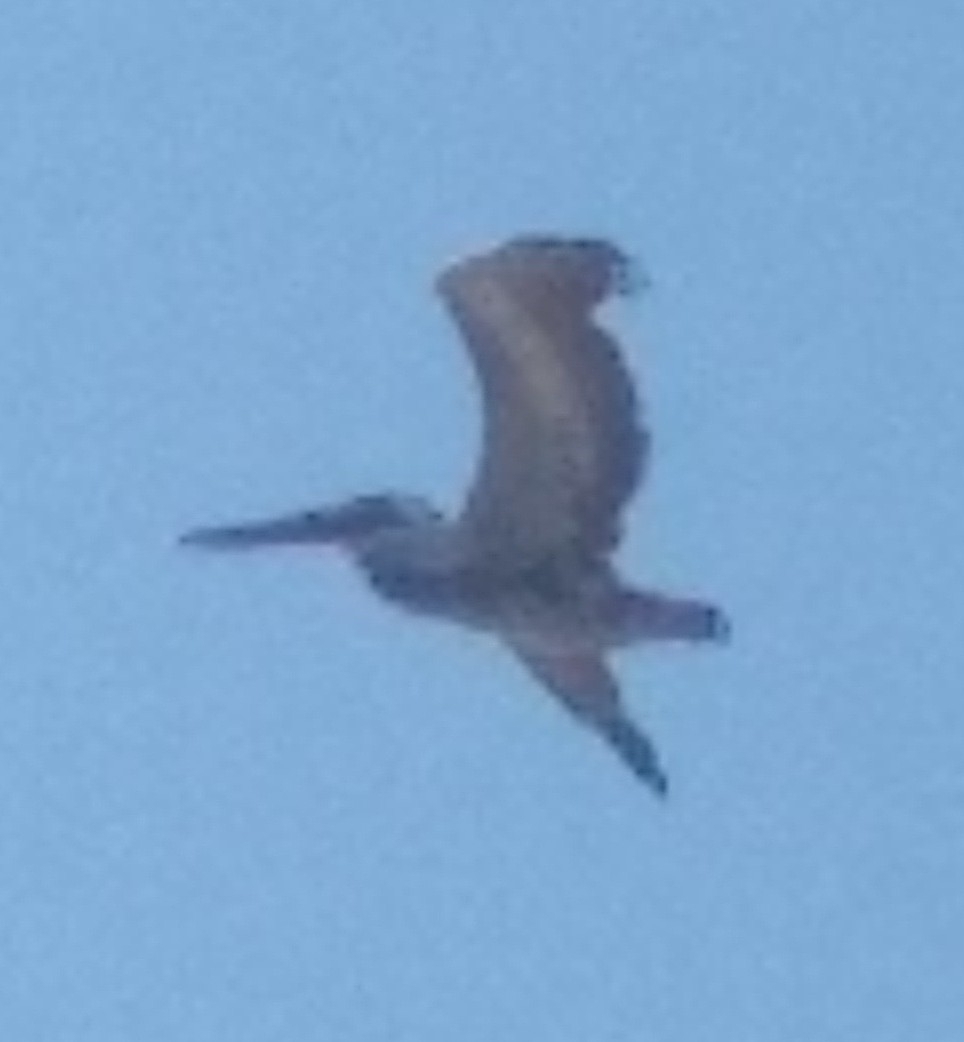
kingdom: Animalia
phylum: Chordata
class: Aves
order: Pelecaniformes
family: Pelecanidae
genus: Pelecanus
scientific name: Pelecanus occidentalis
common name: Brown pelican
